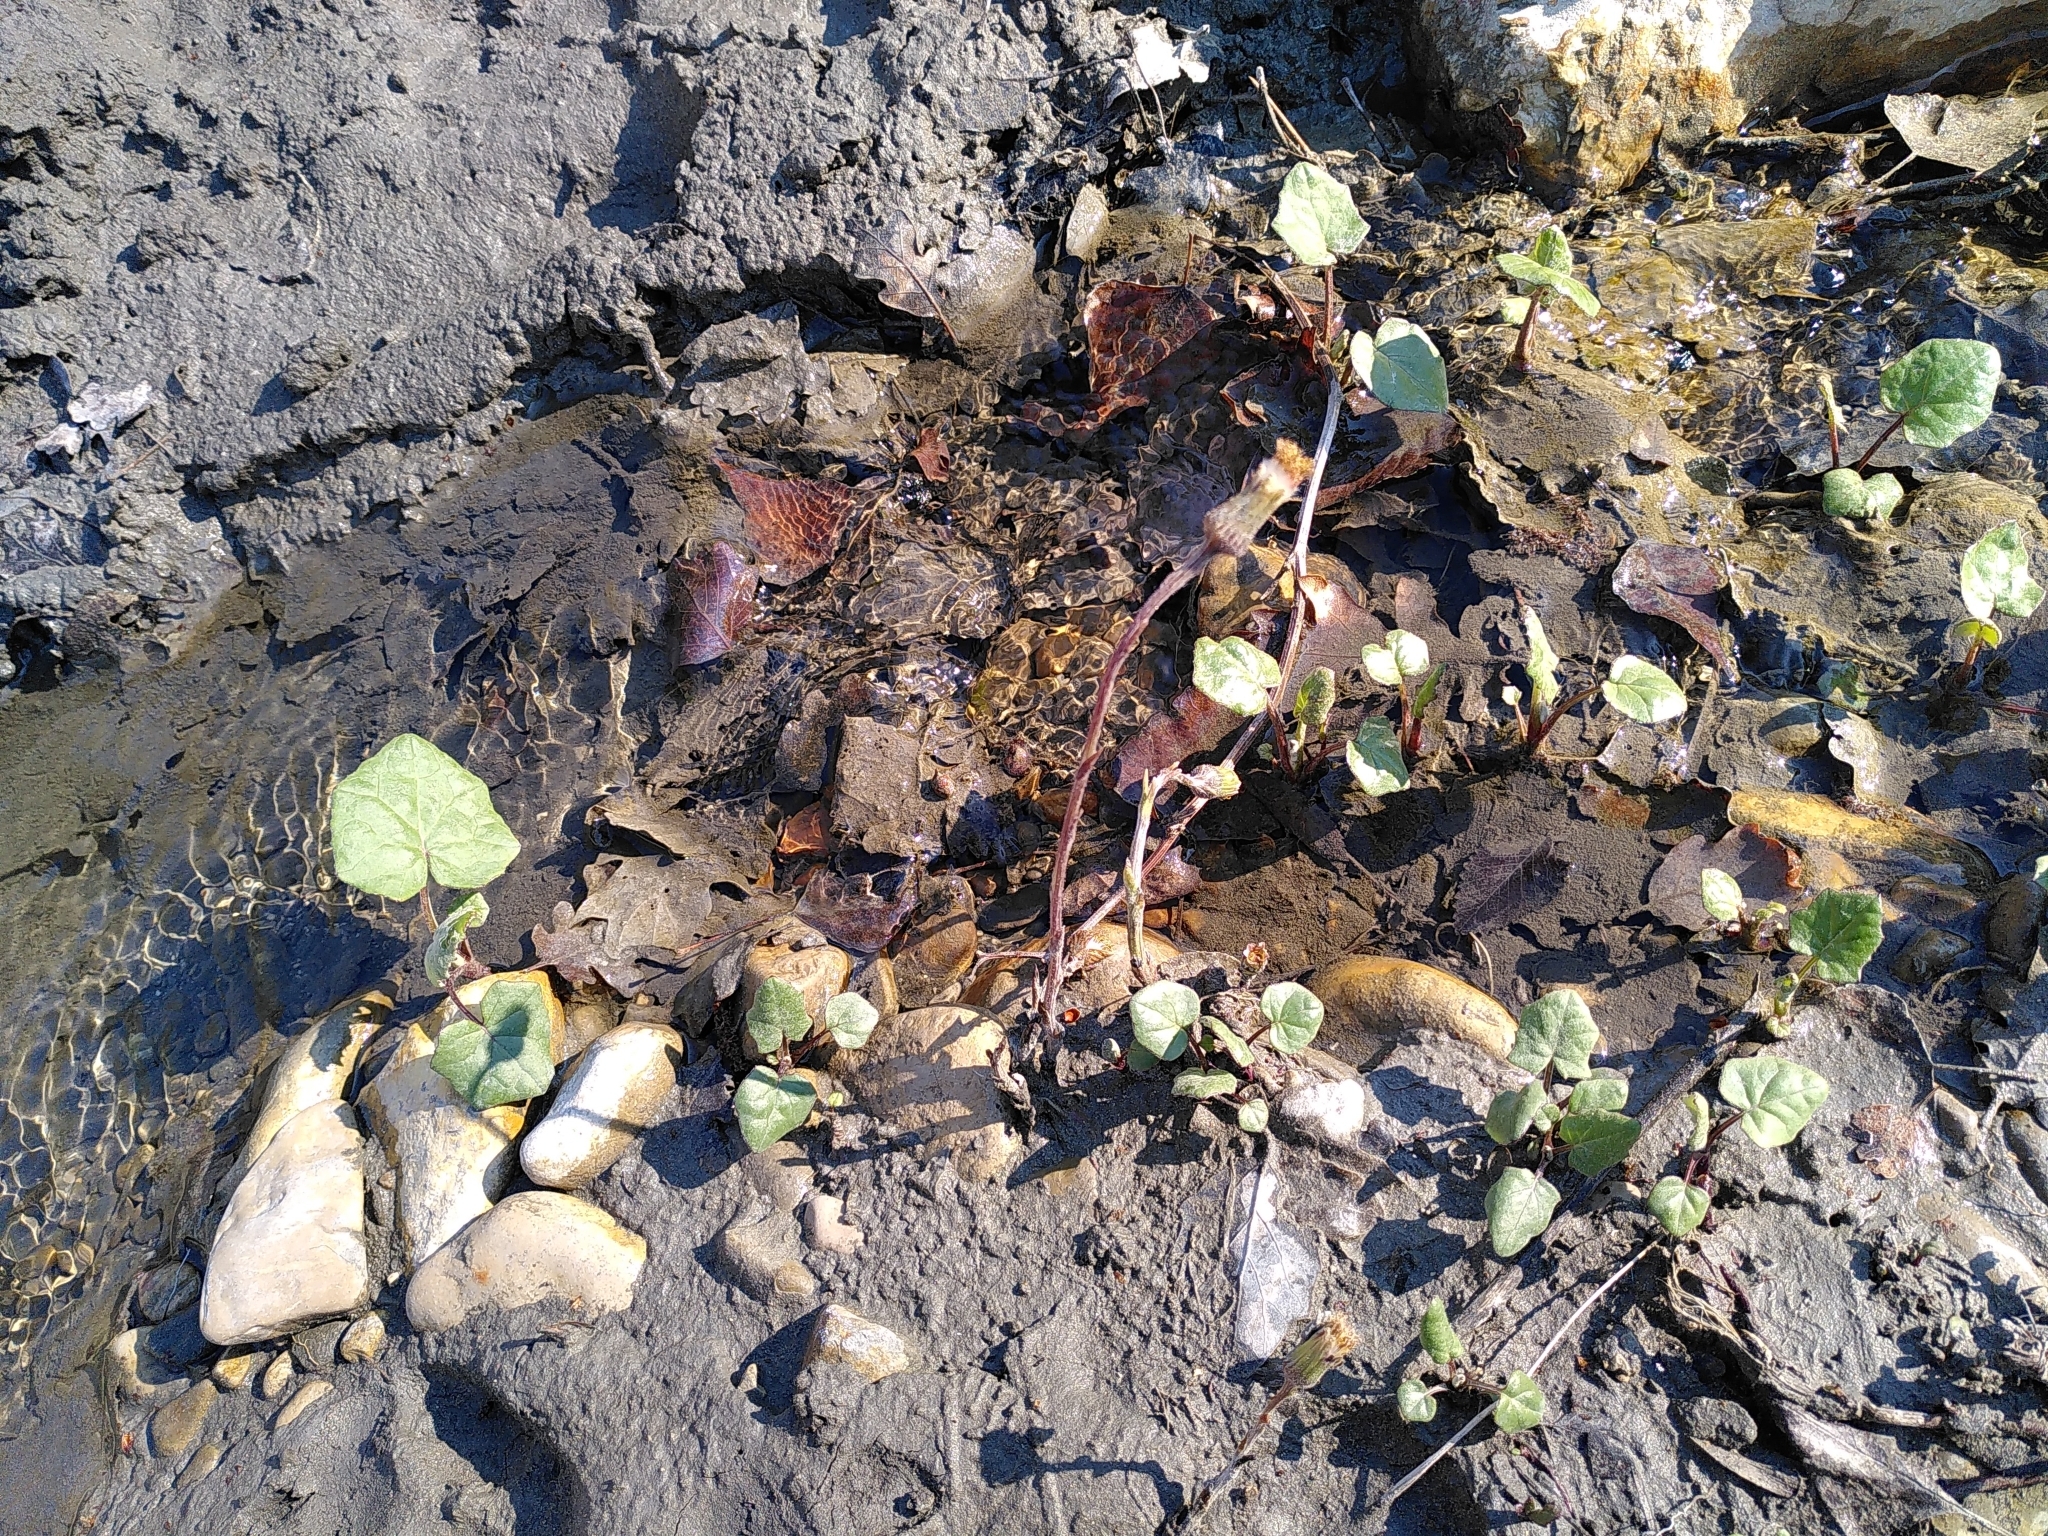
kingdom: Plantae
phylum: Tracheophyta
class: Magnoliopsida
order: Asterales
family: Asteraceae
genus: Tussilago
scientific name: Tussilago farfara
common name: Coltsfoot
